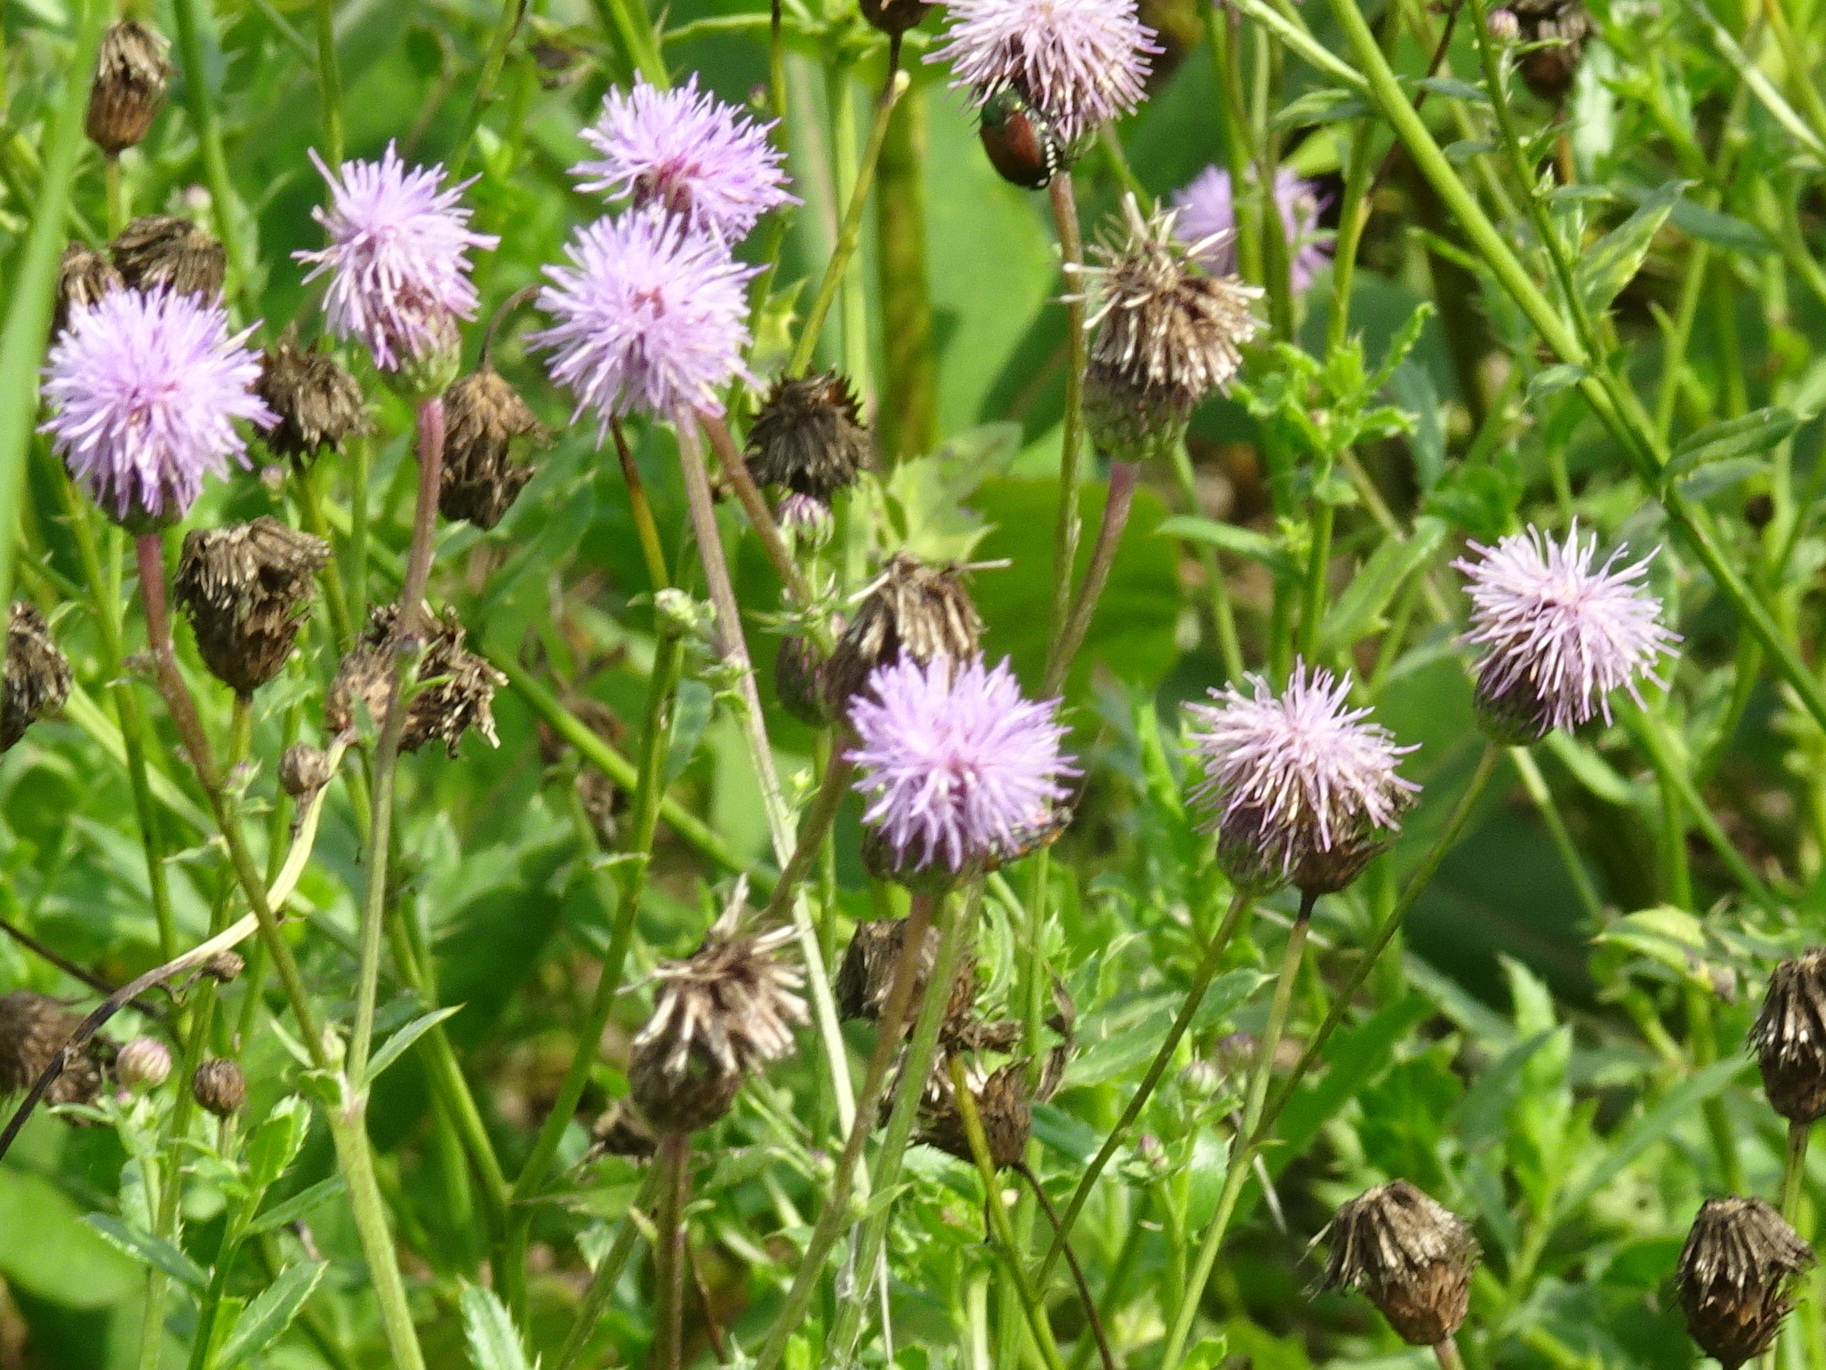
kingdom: Plantae
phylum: Tracheophyta
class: Magnoliopsida
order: Asterales
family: Asteraceae
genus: Cirsium
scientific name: Cirsium arvense
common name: Creeping thistle
